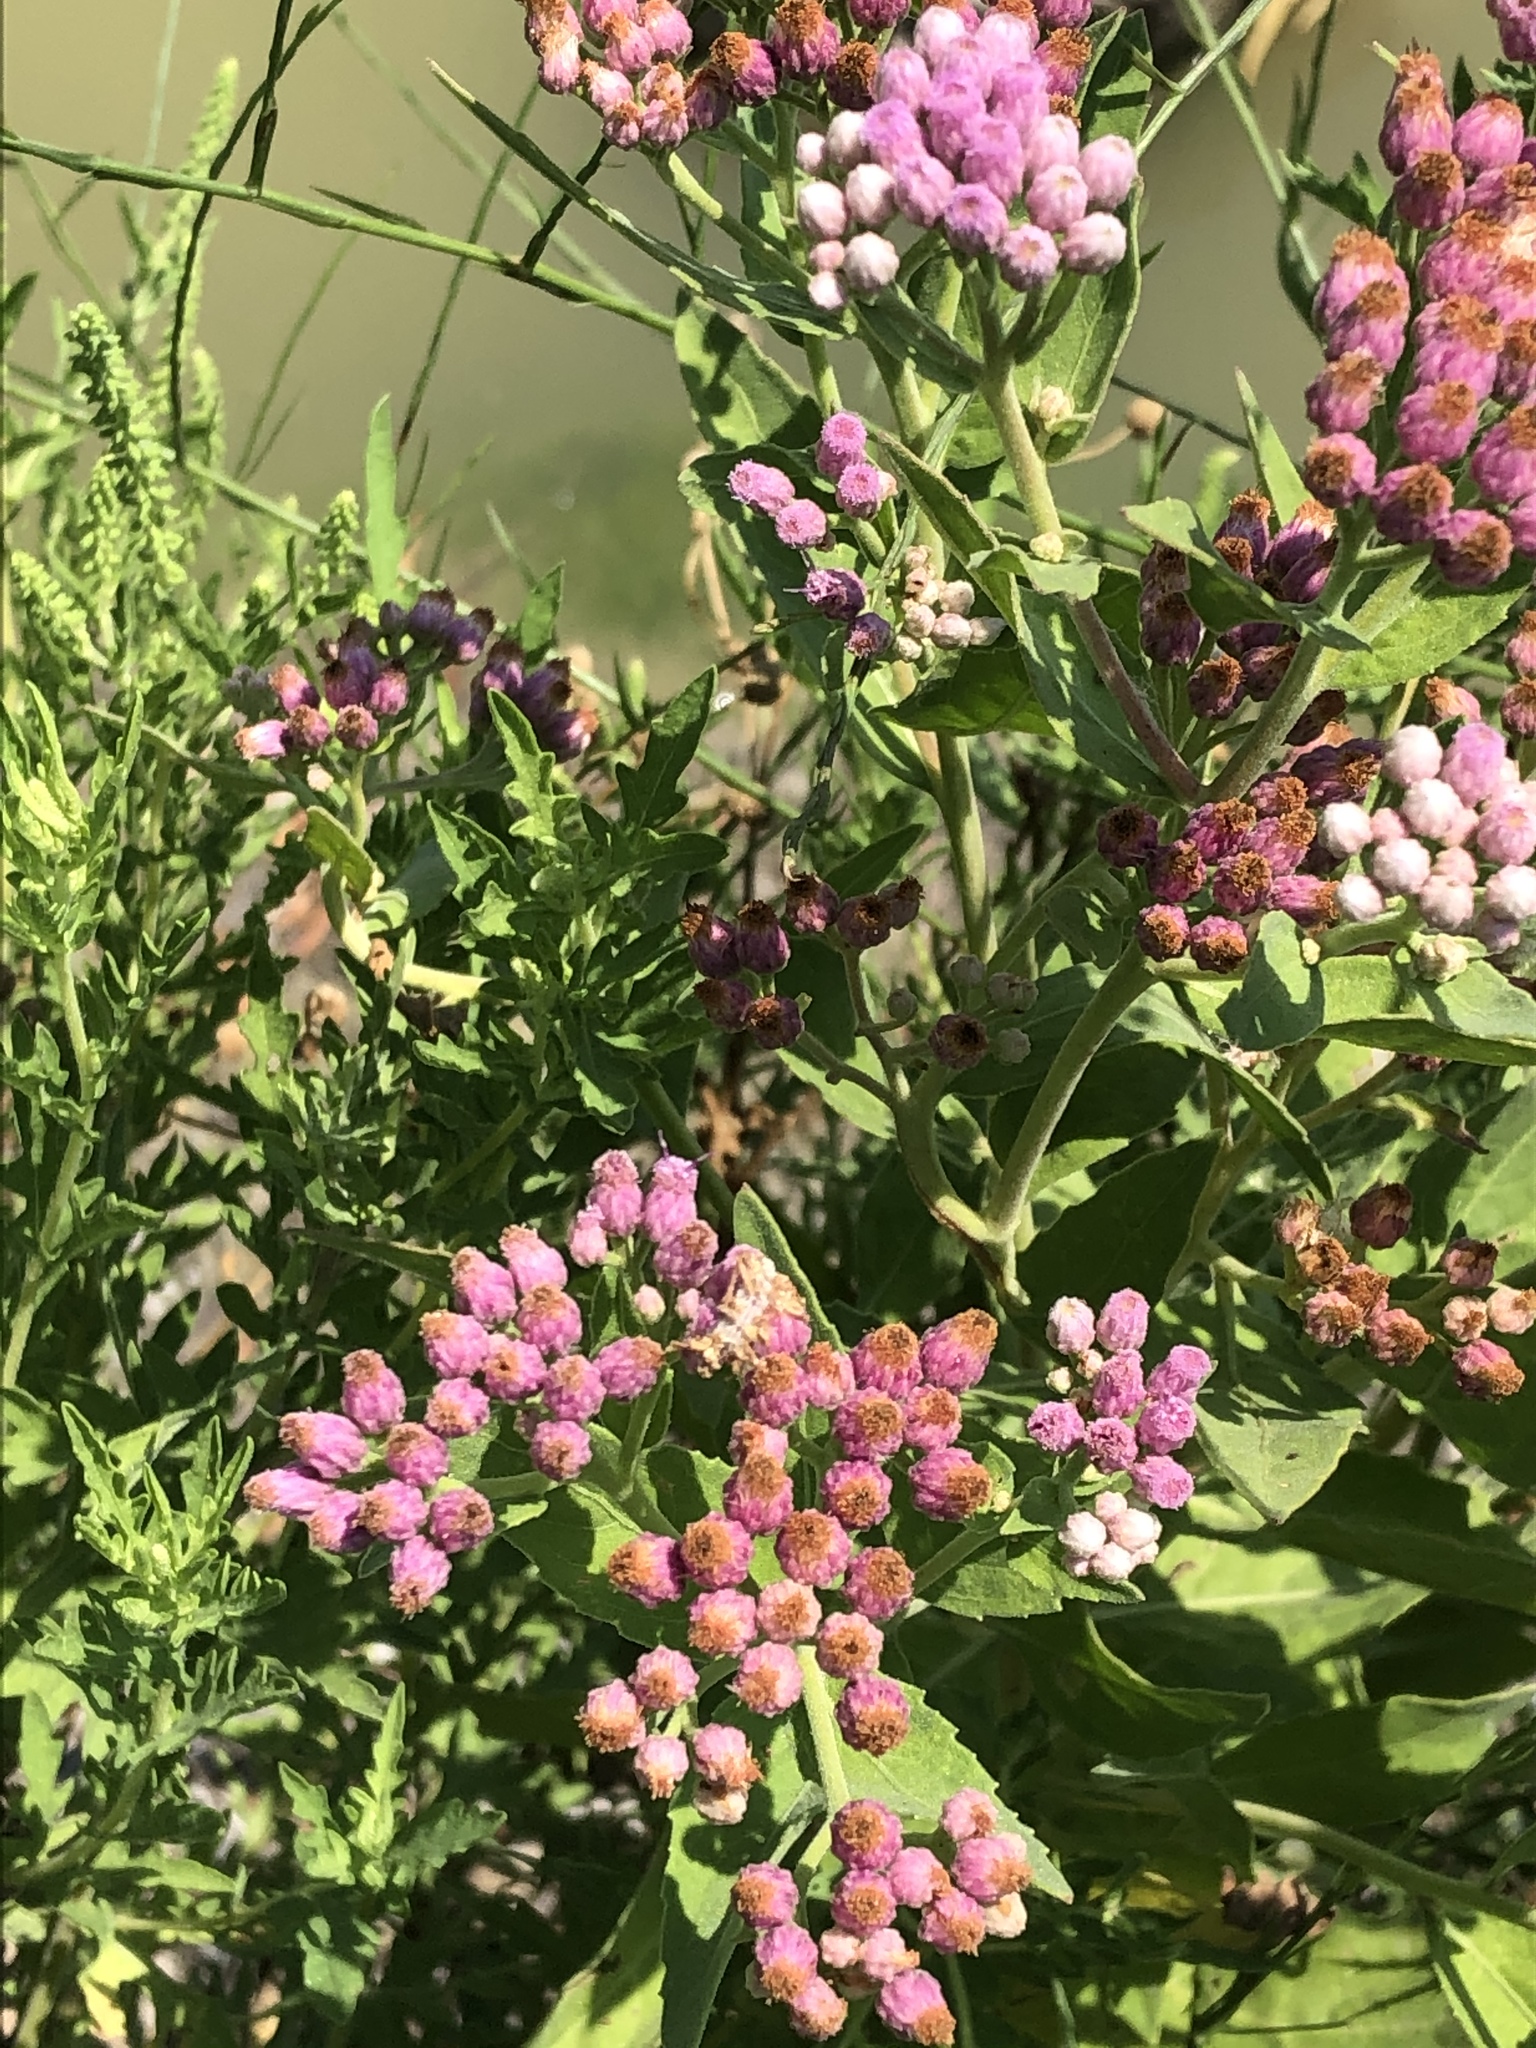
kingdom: Plantae
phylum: Tracheophyta
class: Magnoliopsida
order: Asterales
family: Asteraceae
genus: Pluchea
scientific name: Pluchea odorata
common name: Saltmarsh fleabane
